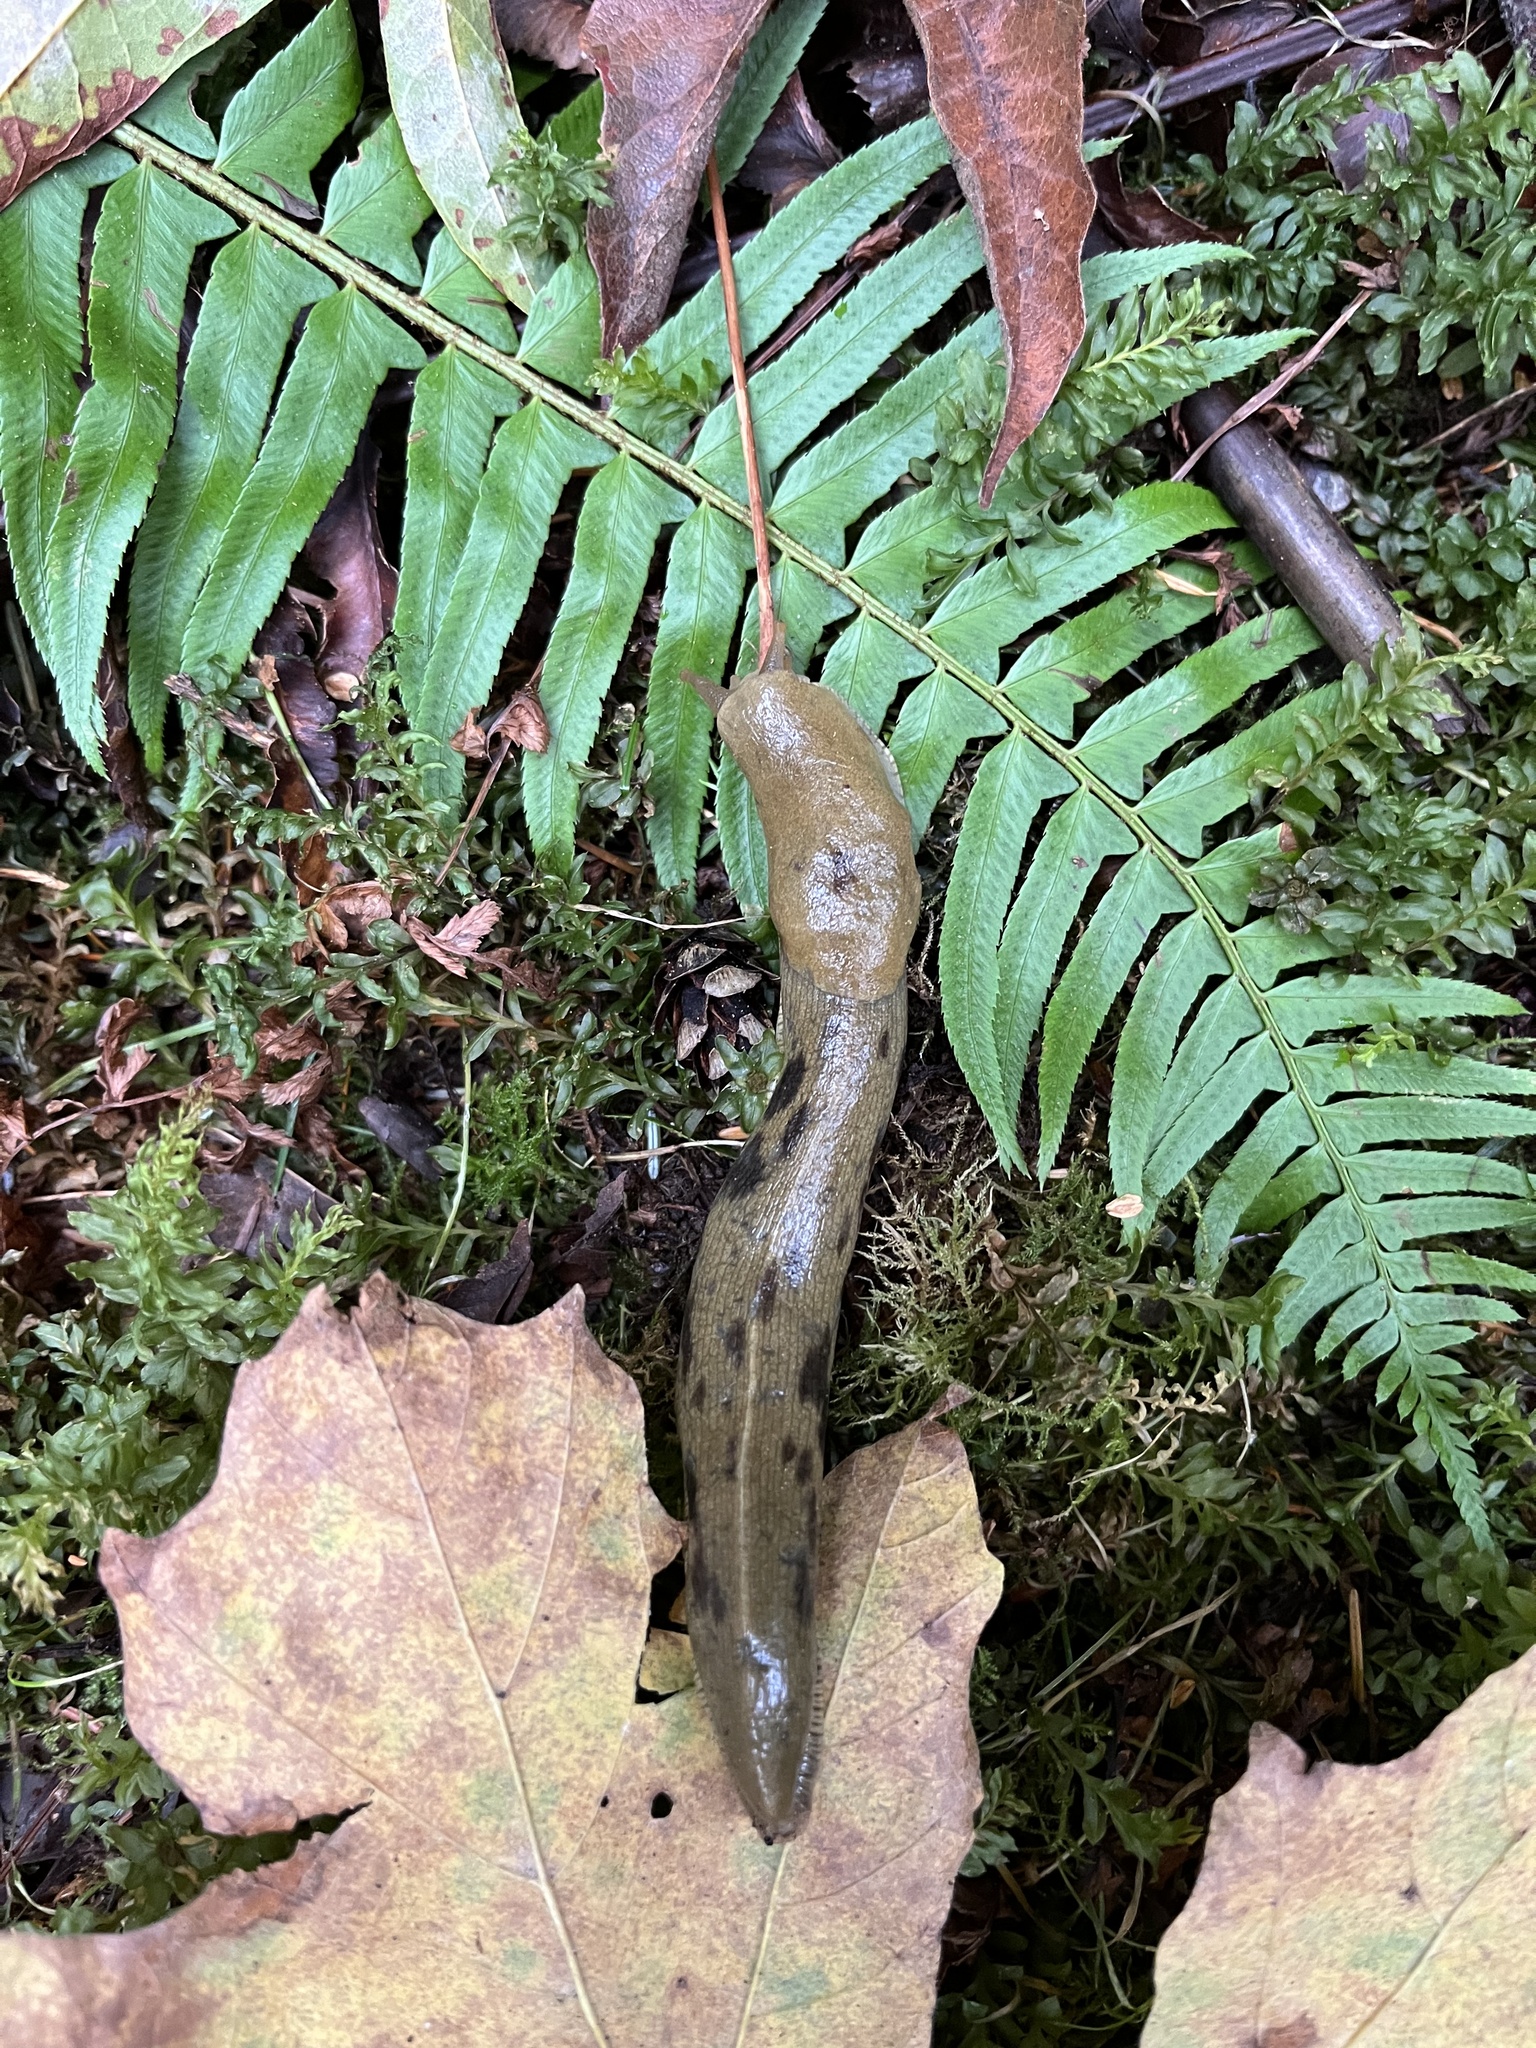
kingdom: Animalia
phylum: Mollusca
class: Gastropoda
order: Stylommatophora
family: Ariolimacidae
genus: Ariolimax
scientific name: Ariolimax columbianus
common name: Pacific banana slug
